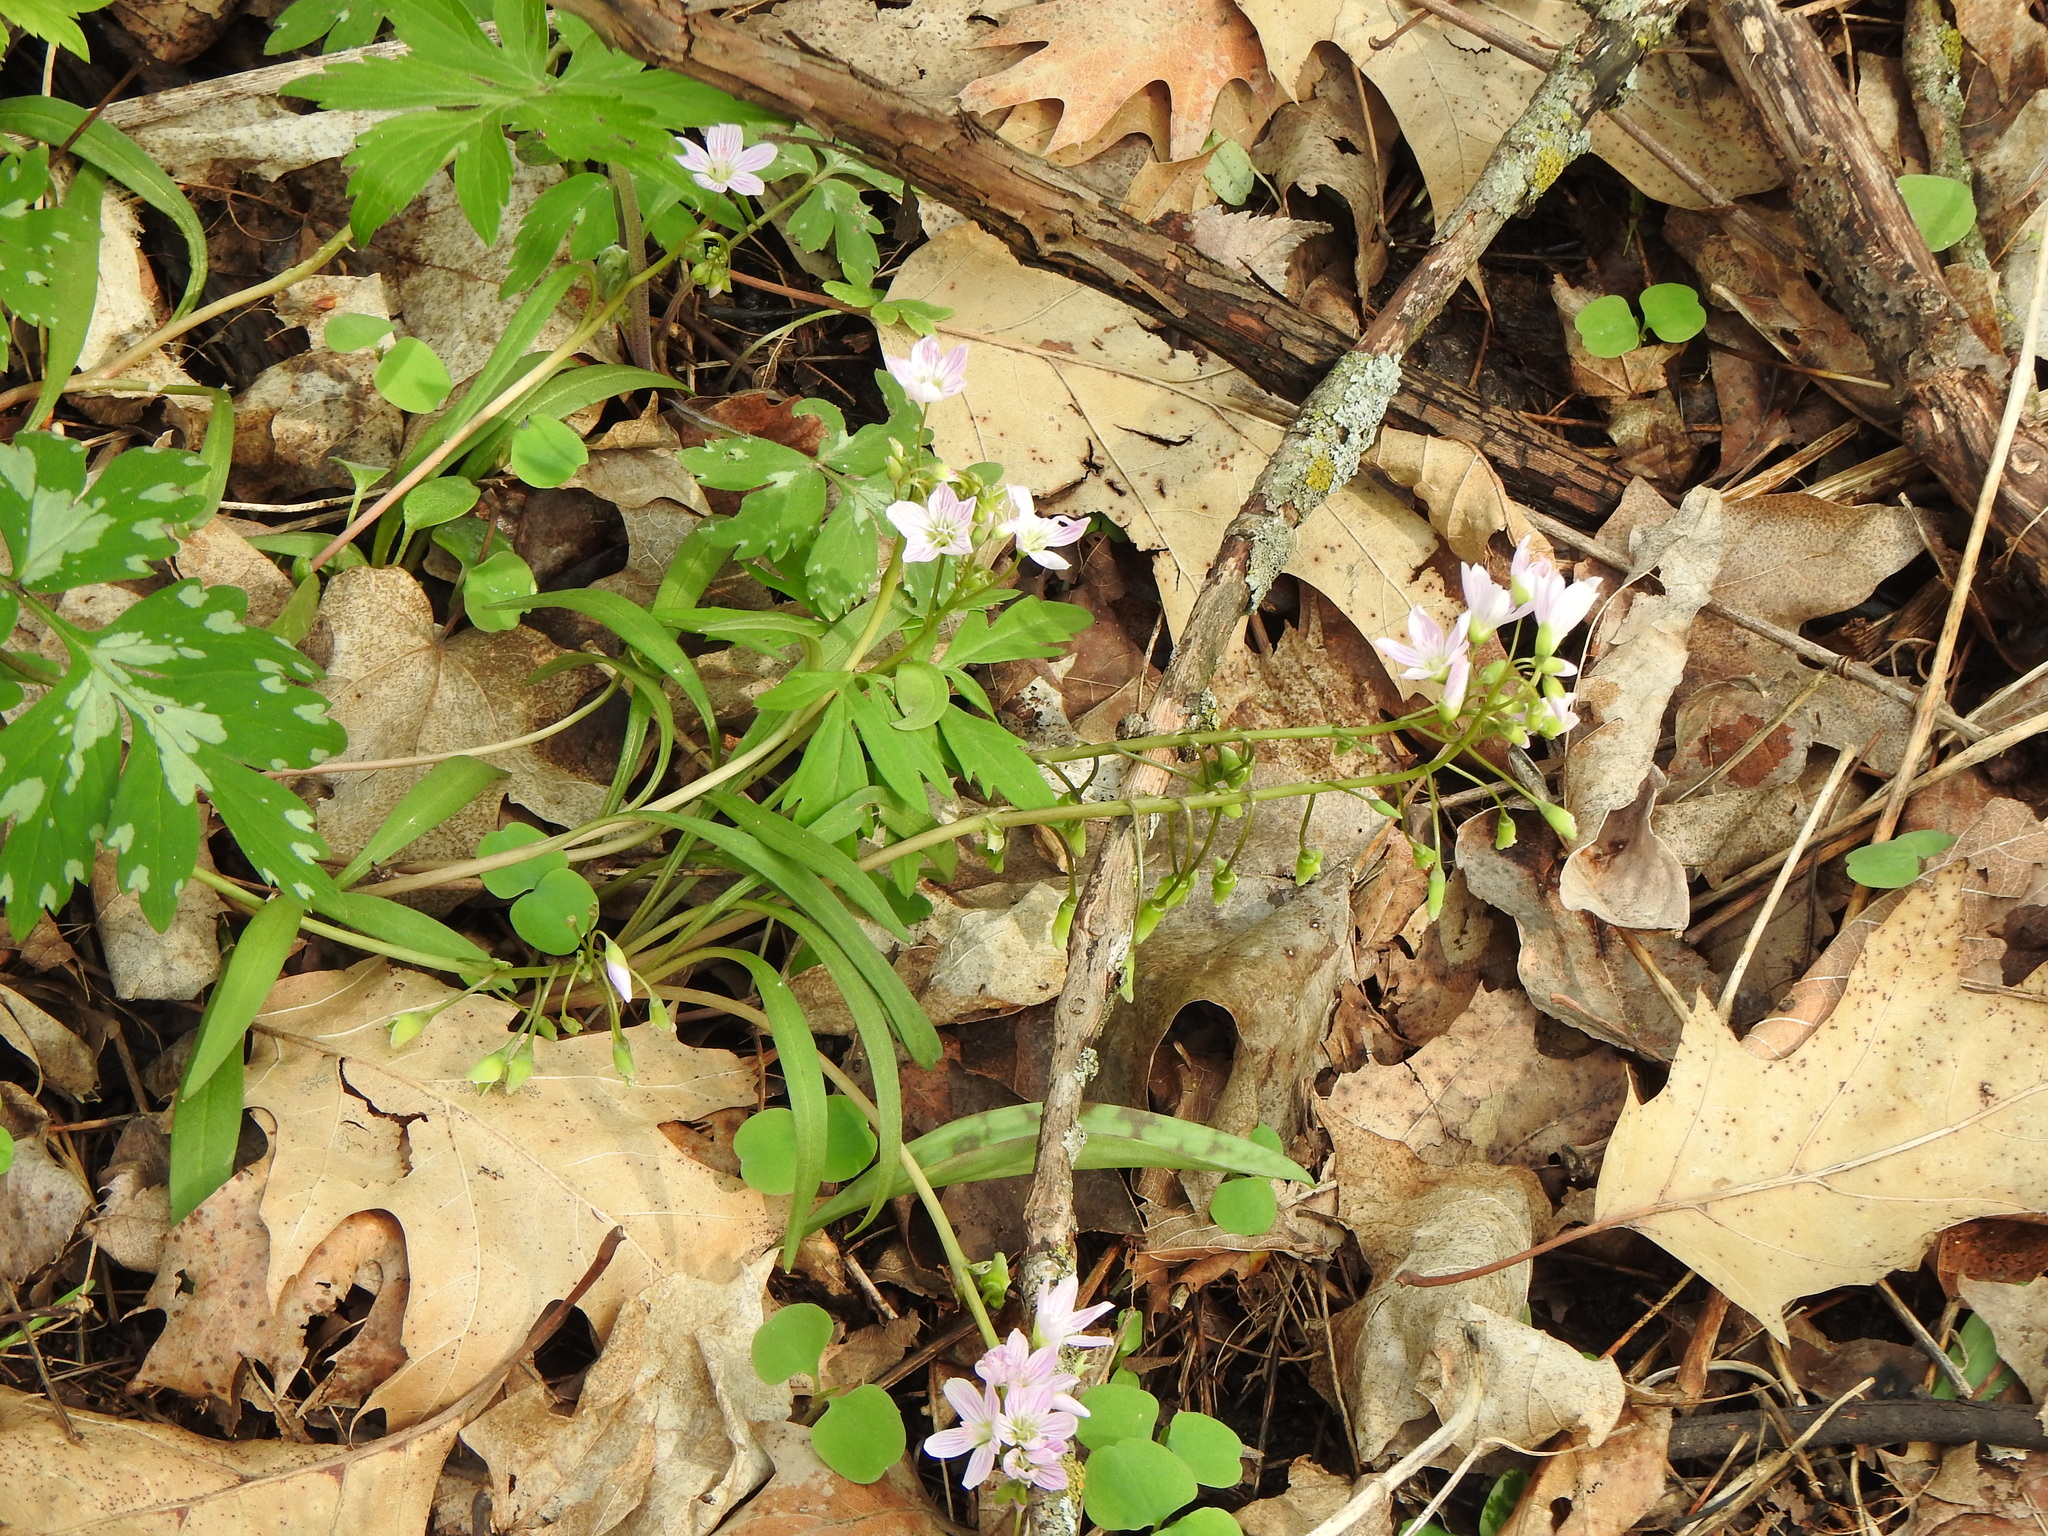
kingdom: Plantae
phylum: Tracheophyta
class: Magnoliopsida
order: Caryophyllales
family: Montiaceae
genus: Claytonia
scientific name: Claytonia virginica
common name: Virginia springbeauty
